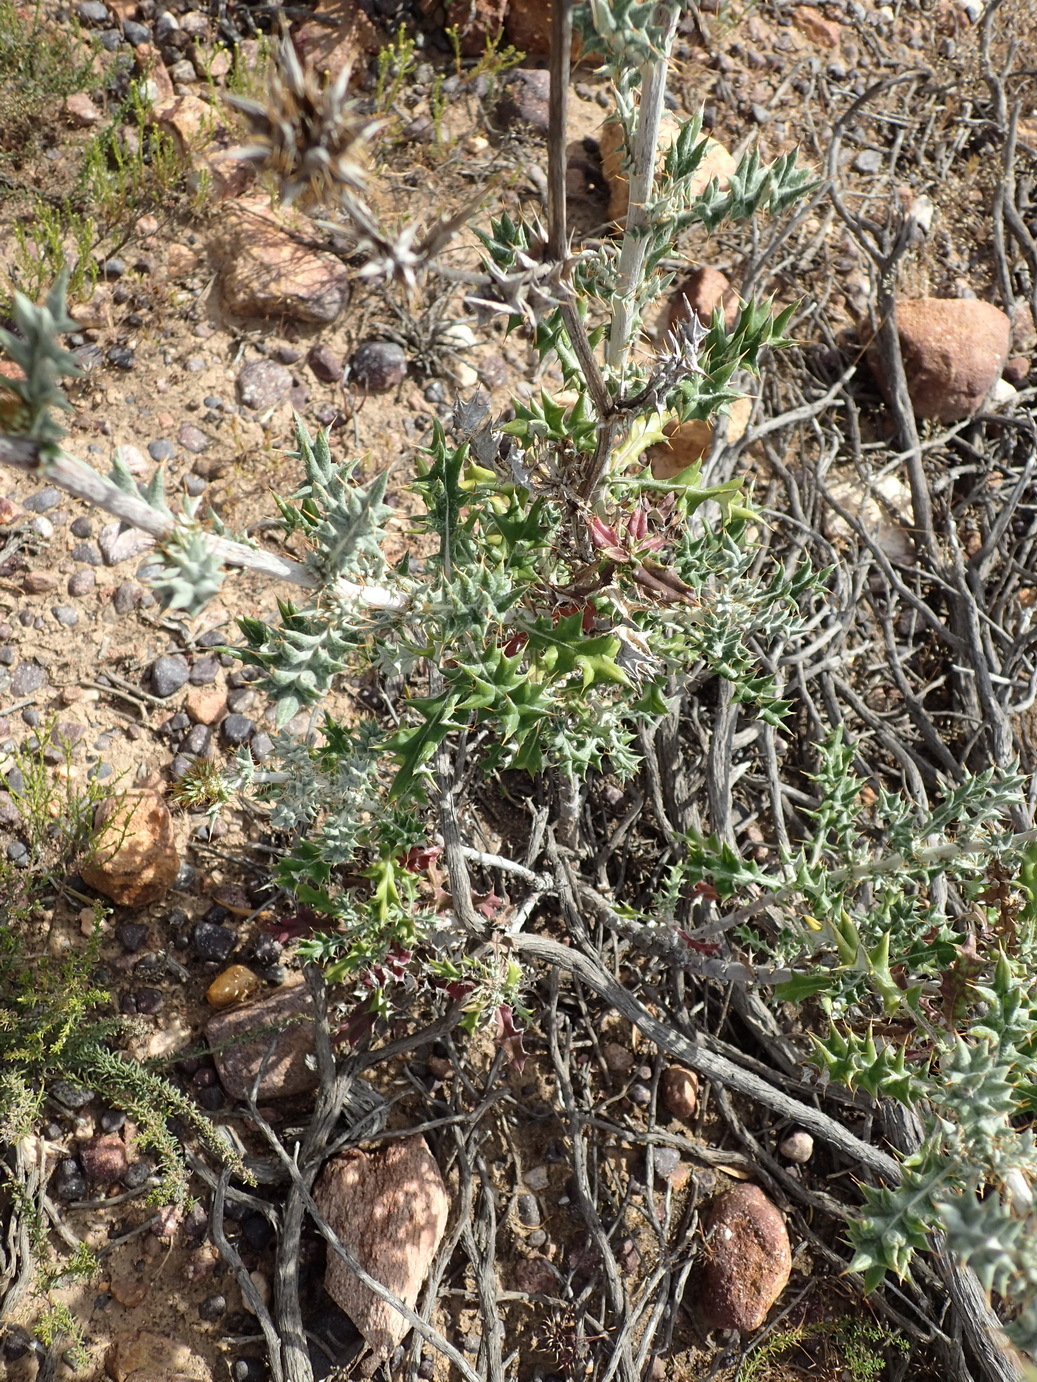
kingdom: Plantae
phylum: Tracheophyta
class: Magnoliopsida
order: Asterales
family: Asteraceae
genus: Berkheya
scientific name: Berkheya heterophylla
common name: Prickly gousblom
